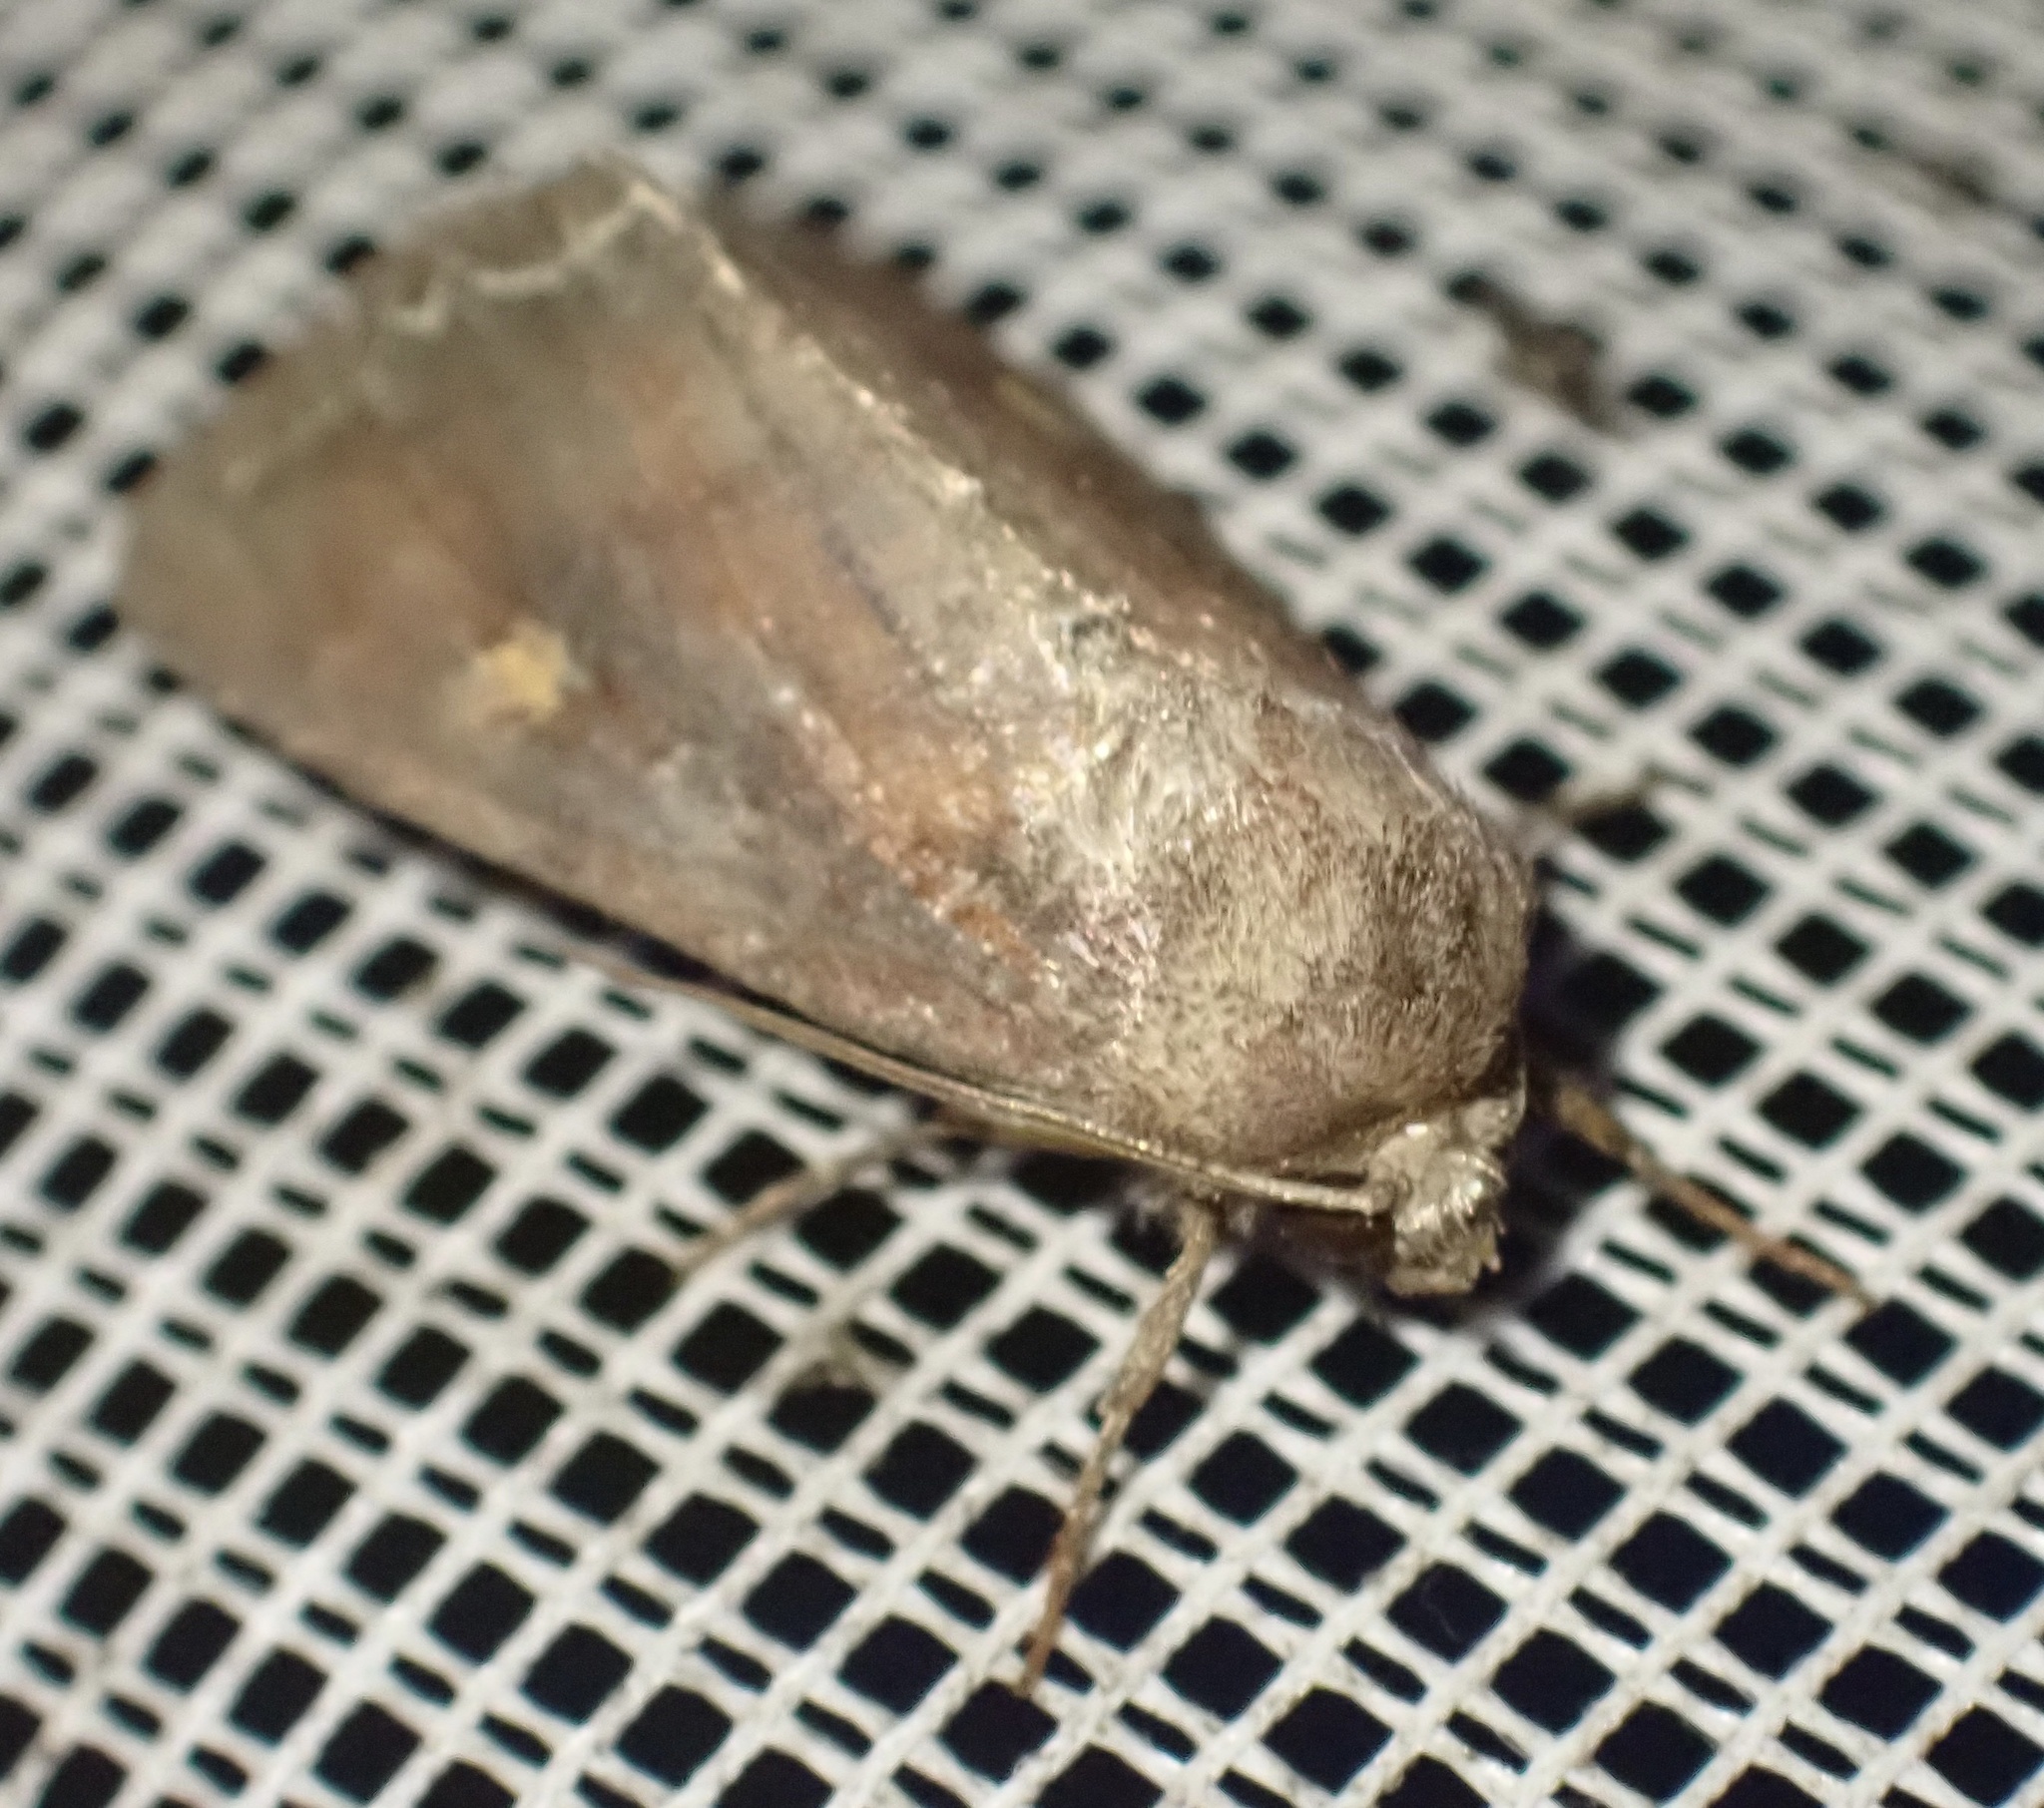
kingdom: Animalia
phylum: Arthropoda
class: Insecta
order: Lepidoptera
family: Noctuidae
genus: Lacanobia
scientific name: Lacanobia oleracea
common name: Bright-line brown-eye
